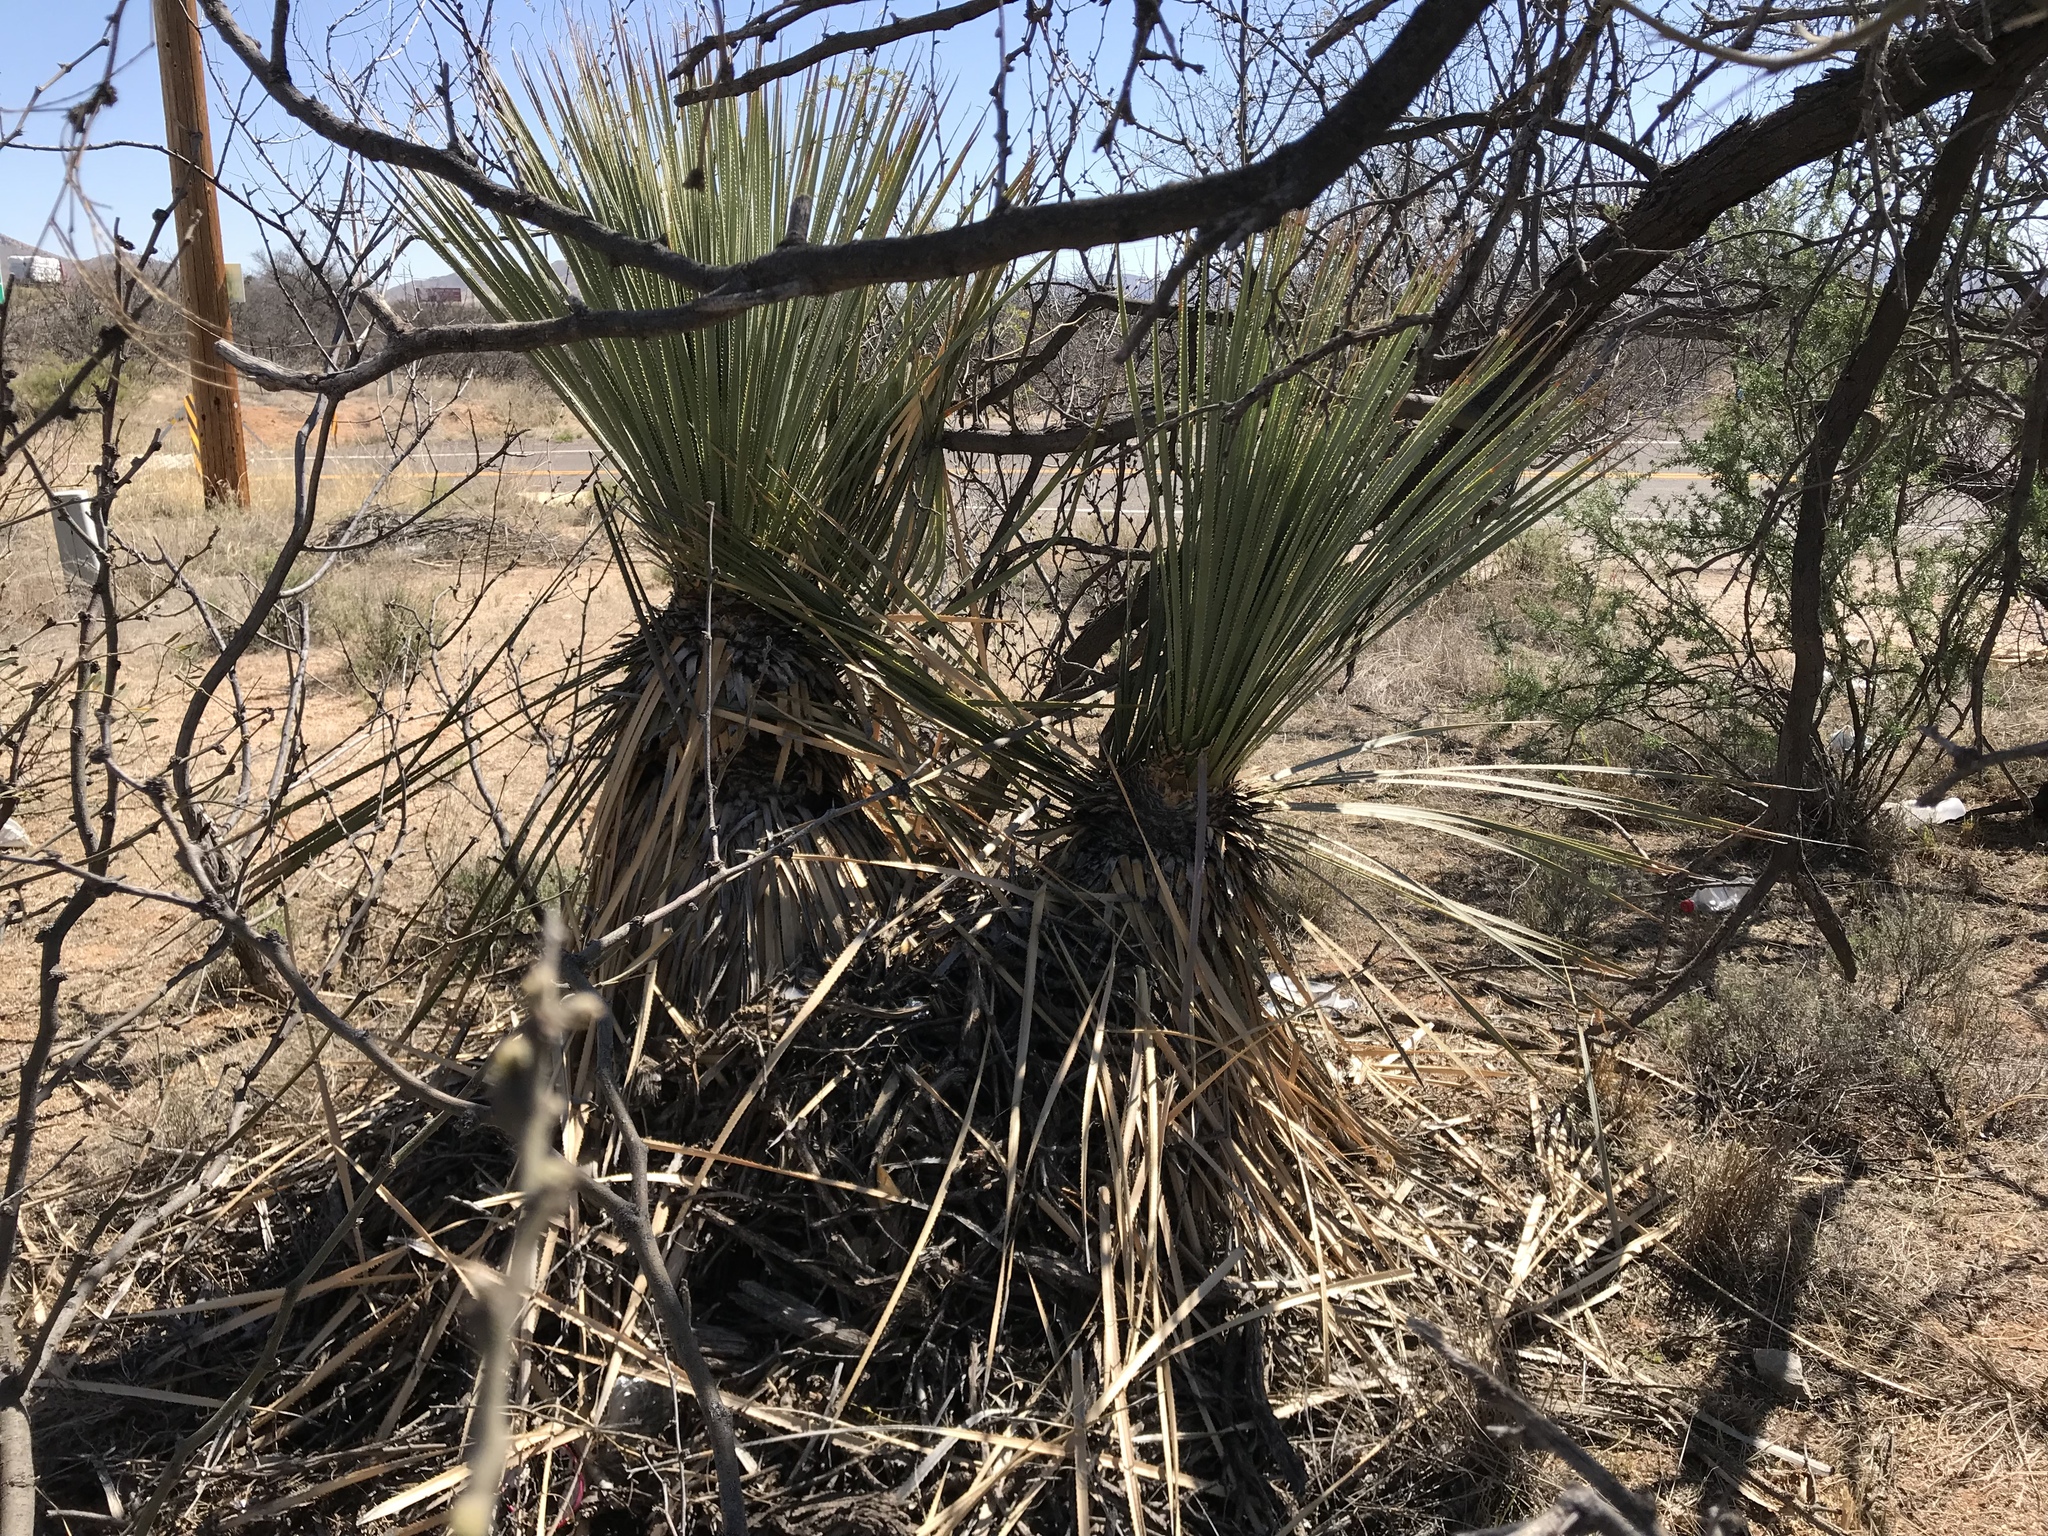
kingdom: Plantae
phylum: Tracheophyta
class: Liliopsida
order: Asparagales
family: Asparagaceae
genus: Yucca
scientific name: Yucca elata
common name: Palmella
